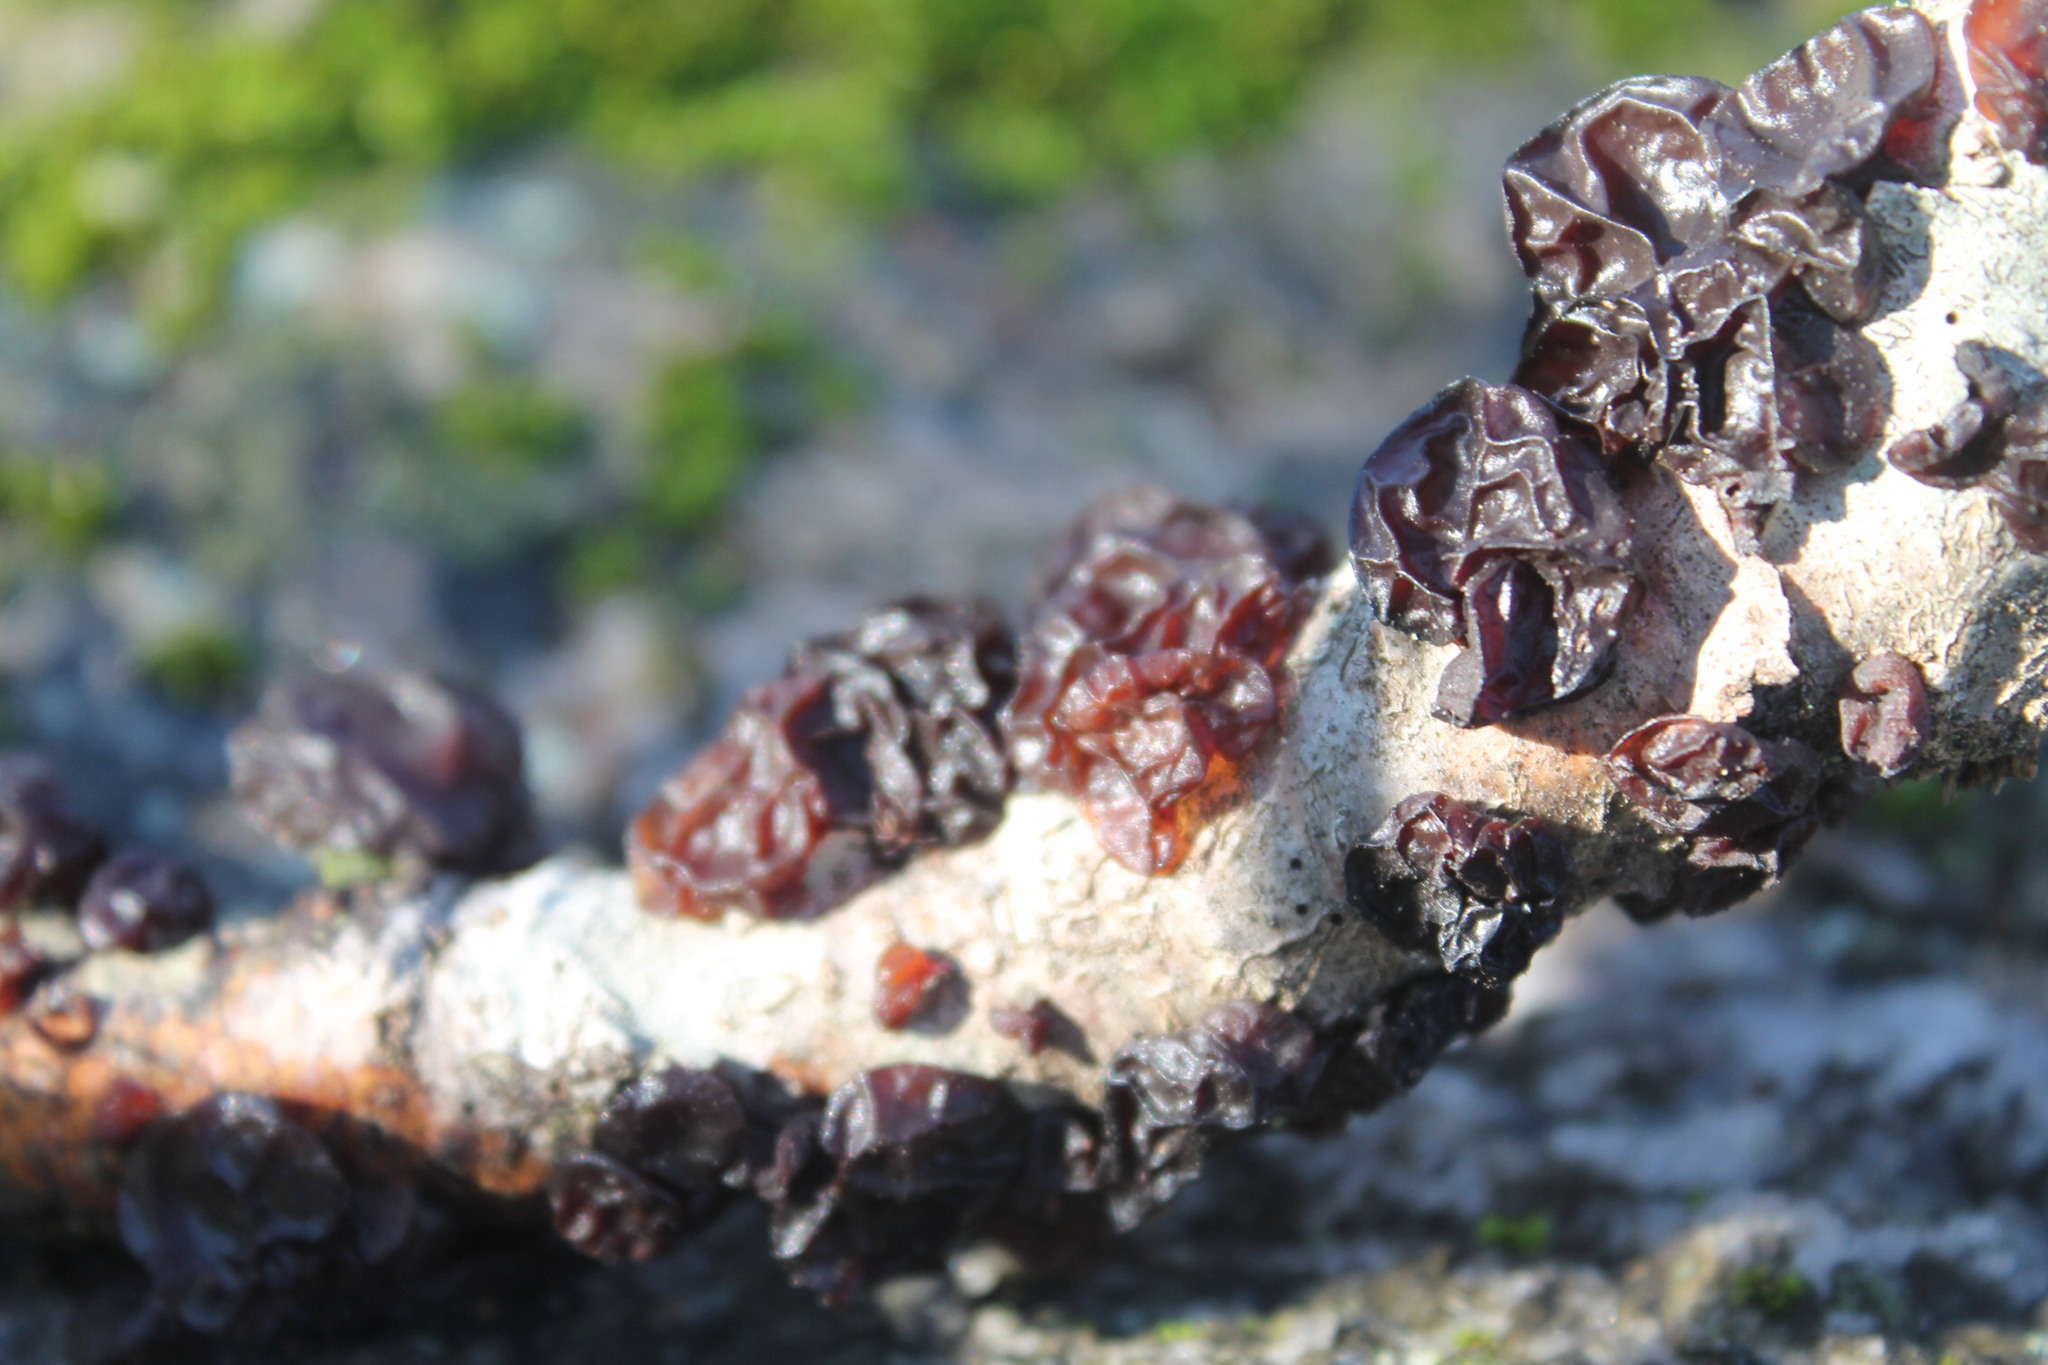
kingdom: Fungi
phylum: Basidiomycota
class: Agaricomycetes
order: Auriculariales
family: Auriculariaceae
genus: Exidia
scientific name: Exidia
